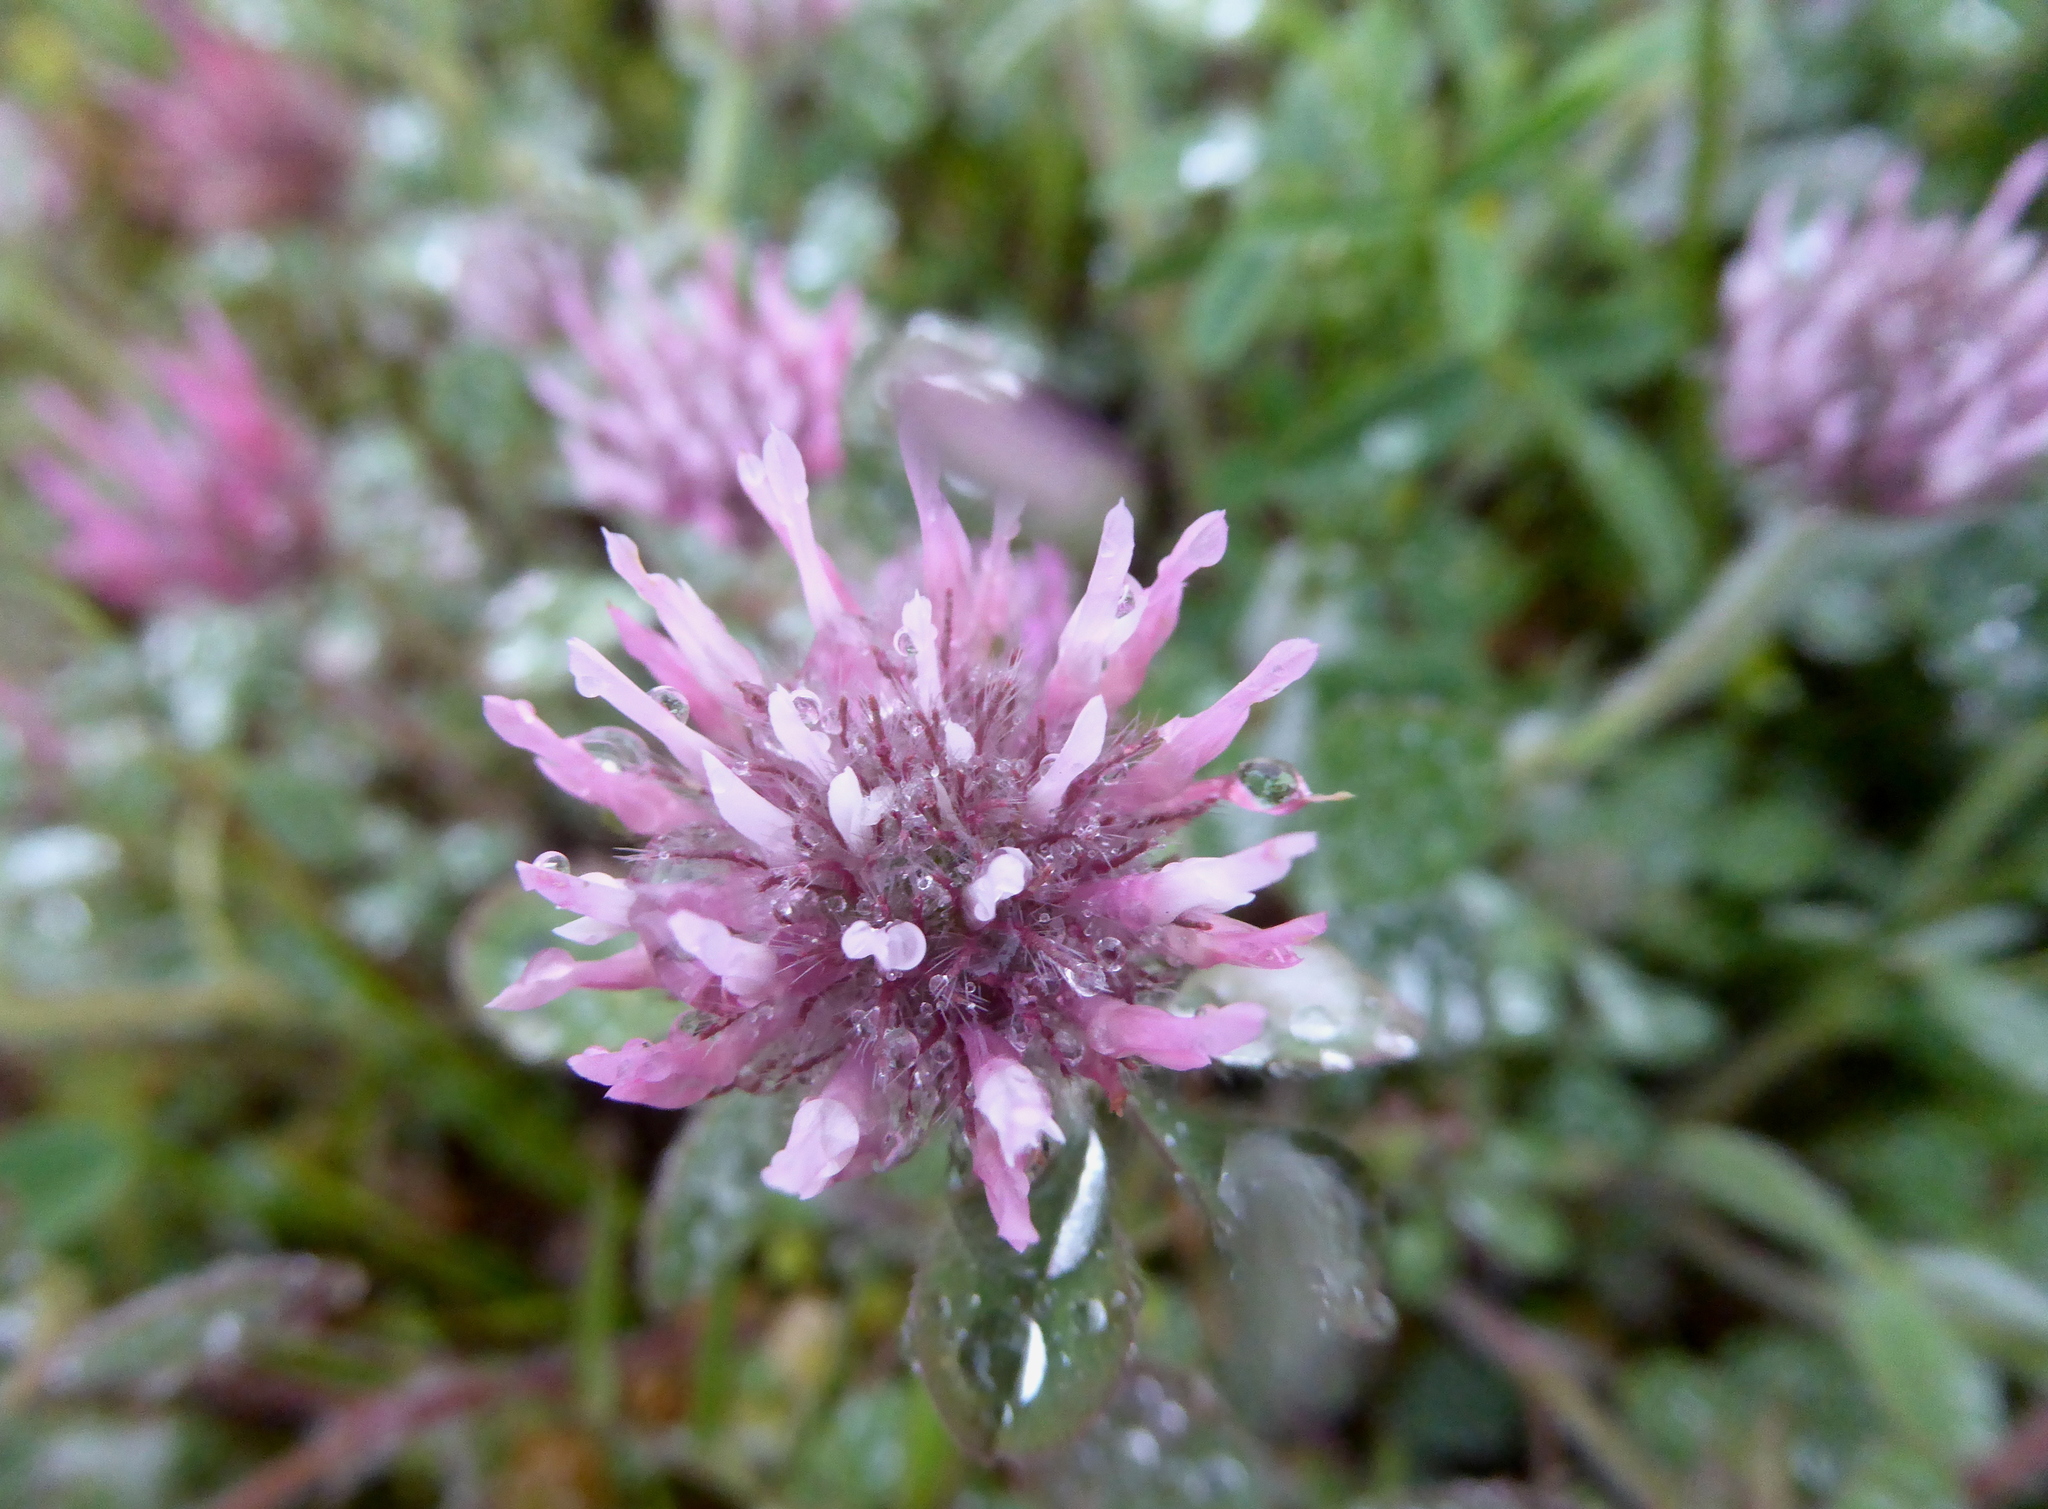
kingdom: Plantae
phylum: Tracheophyta
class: Magnoliopsida
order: Fabales
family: Fabaceae
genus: Trifolium
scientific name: Trifolium hirtum
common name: Rose clover
